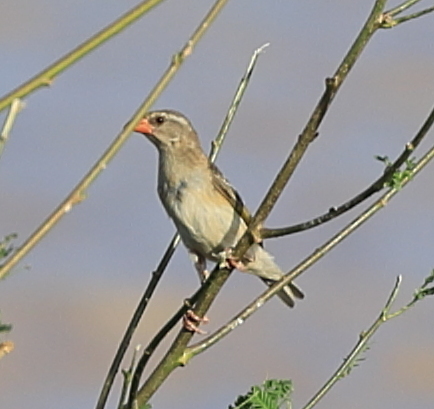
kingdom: Animalia
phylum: Chordata
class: Aves
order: Passeriformes
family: Ploceidae
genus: Quelea
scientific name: Quelea quelea
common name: Red-billed quelea
